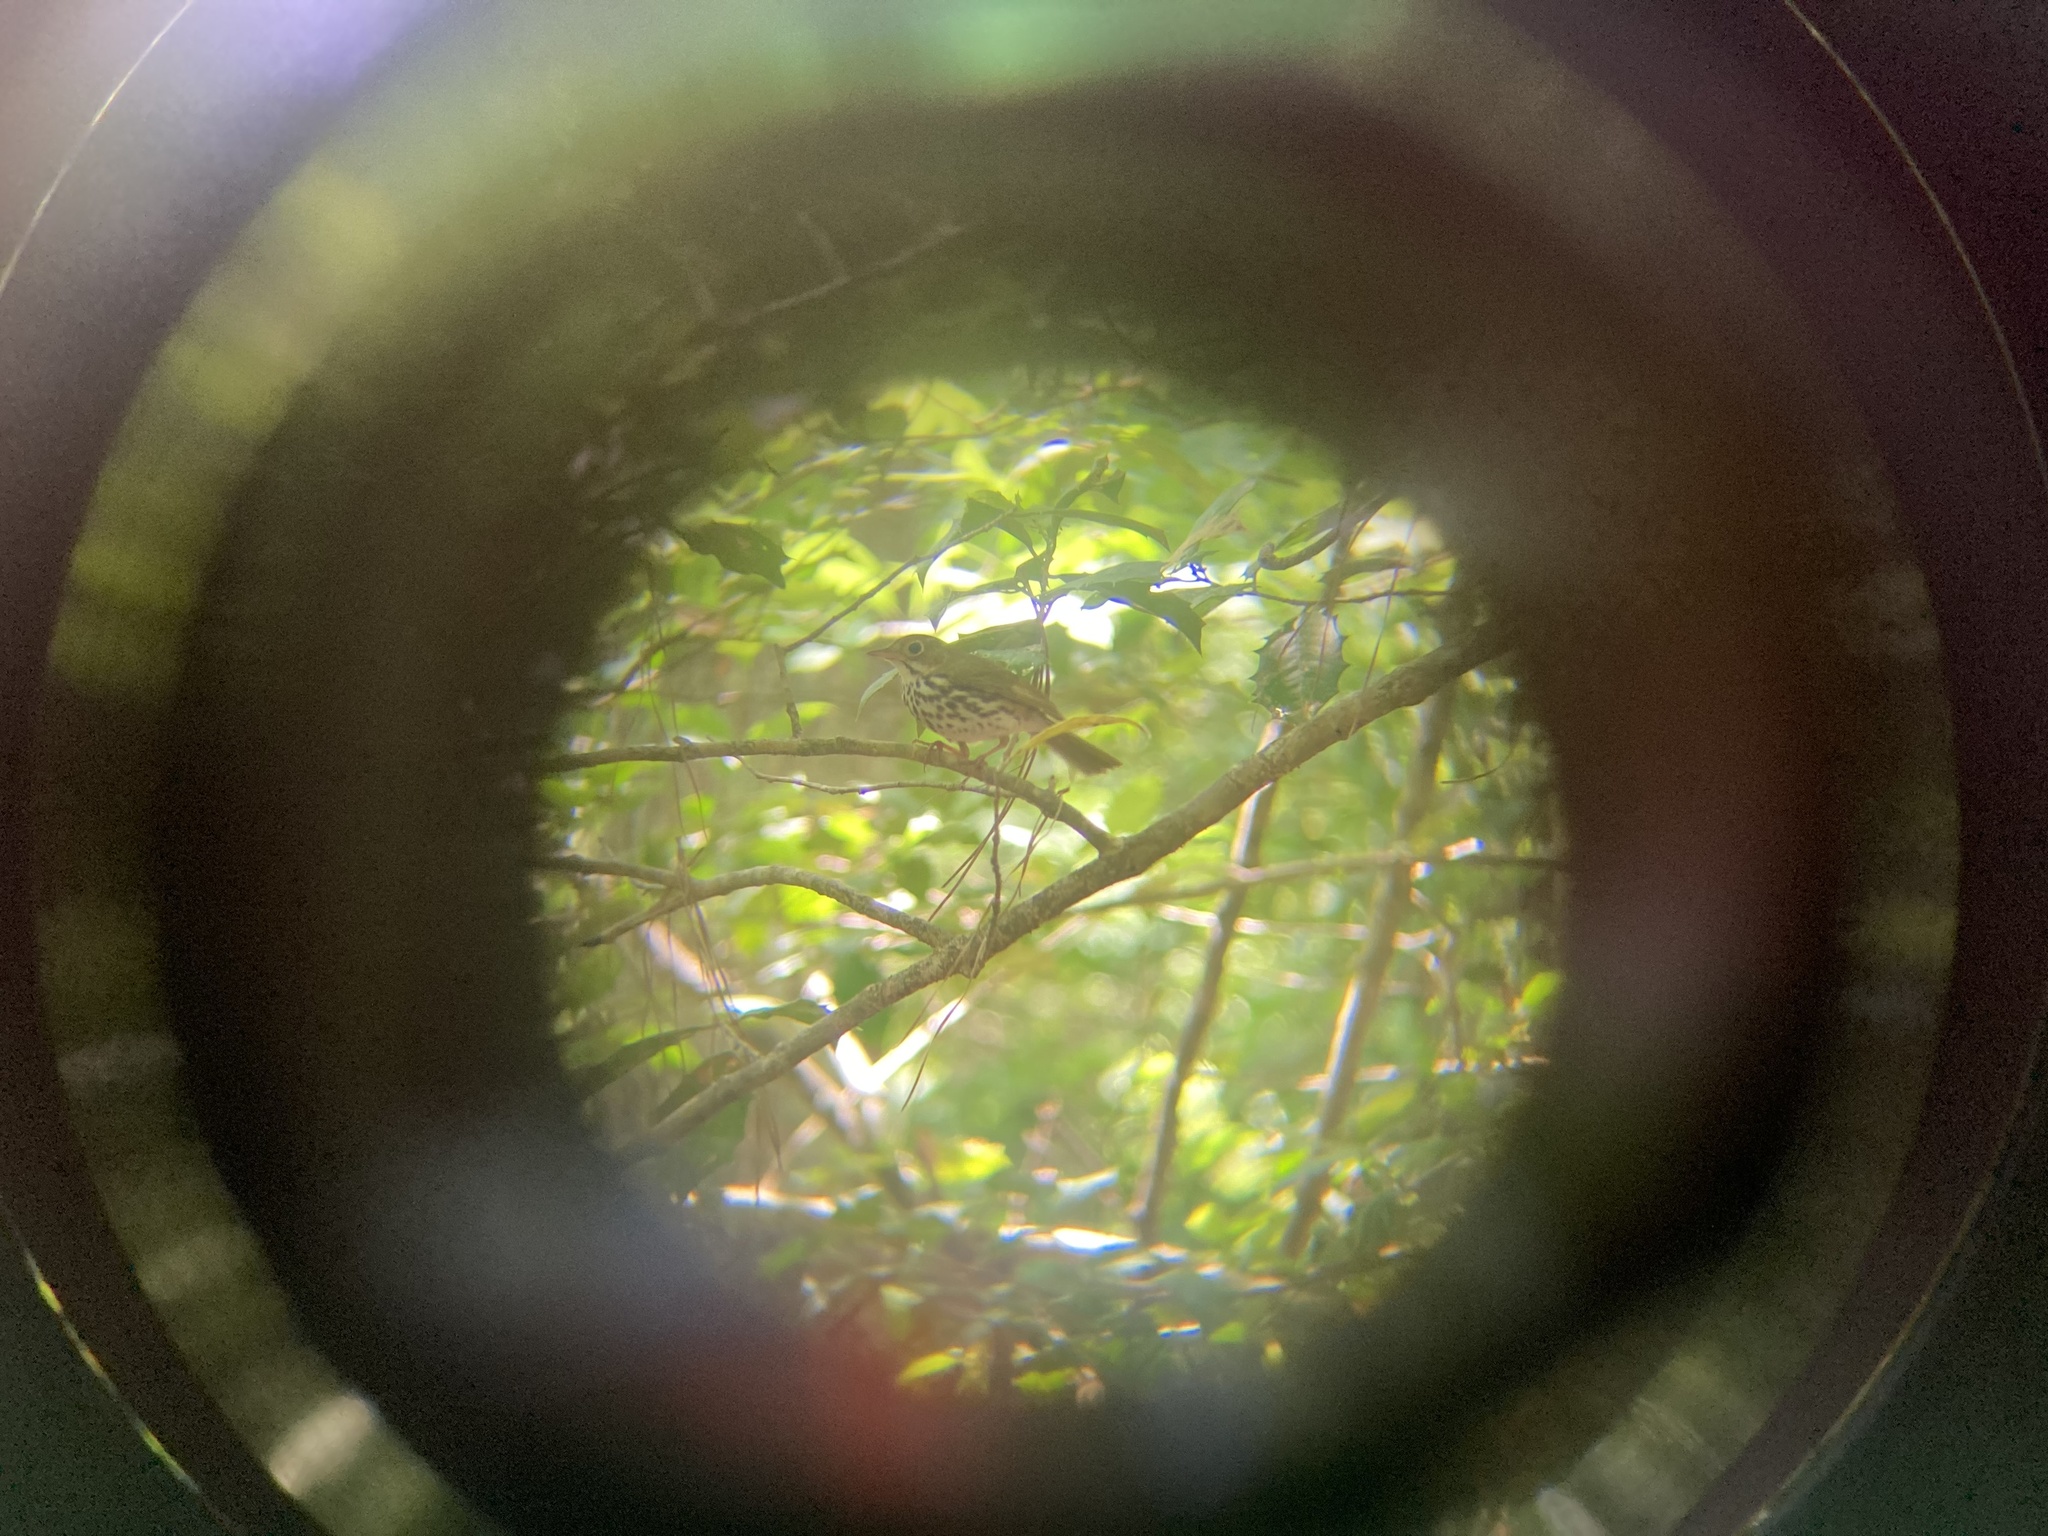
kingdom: Animalia
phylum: Chordata
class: Aves
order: Passeriformes
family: Parulidae
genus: Seiurus
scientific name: Seiurus aurocapilla
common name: Ovenbird
